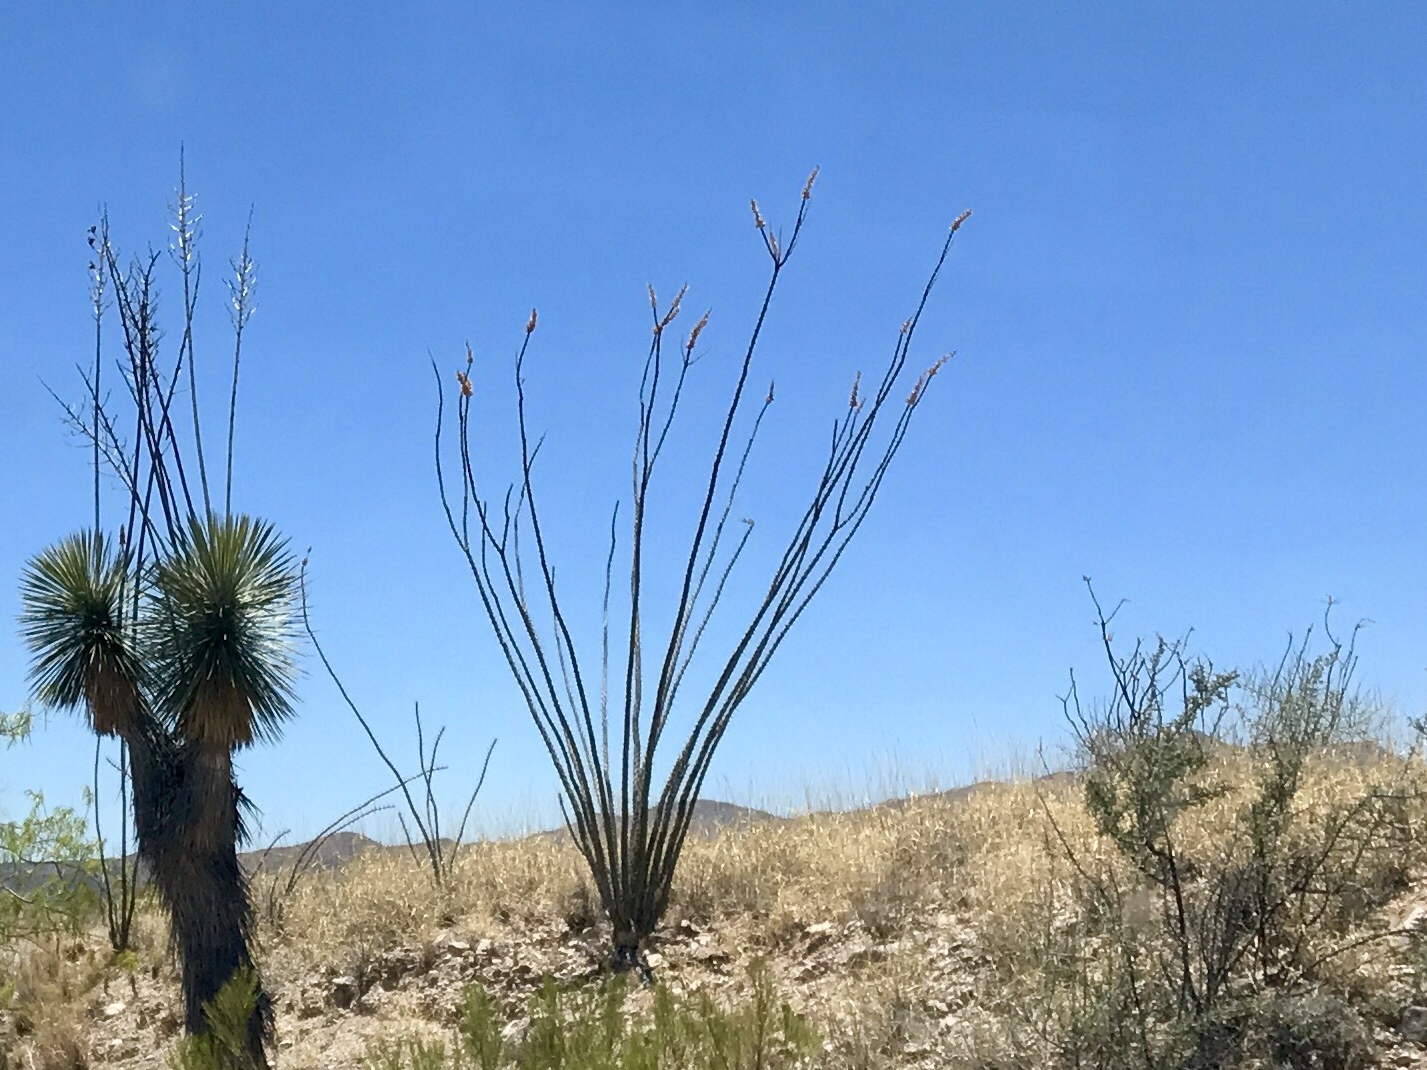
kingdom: Plantae
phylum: Tracheophyta
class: Magnoliopsida
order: Ericales
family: Fouquieriaceae
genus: Fouquieria
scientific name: Fouquieria splendens
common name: Vine-cactus
